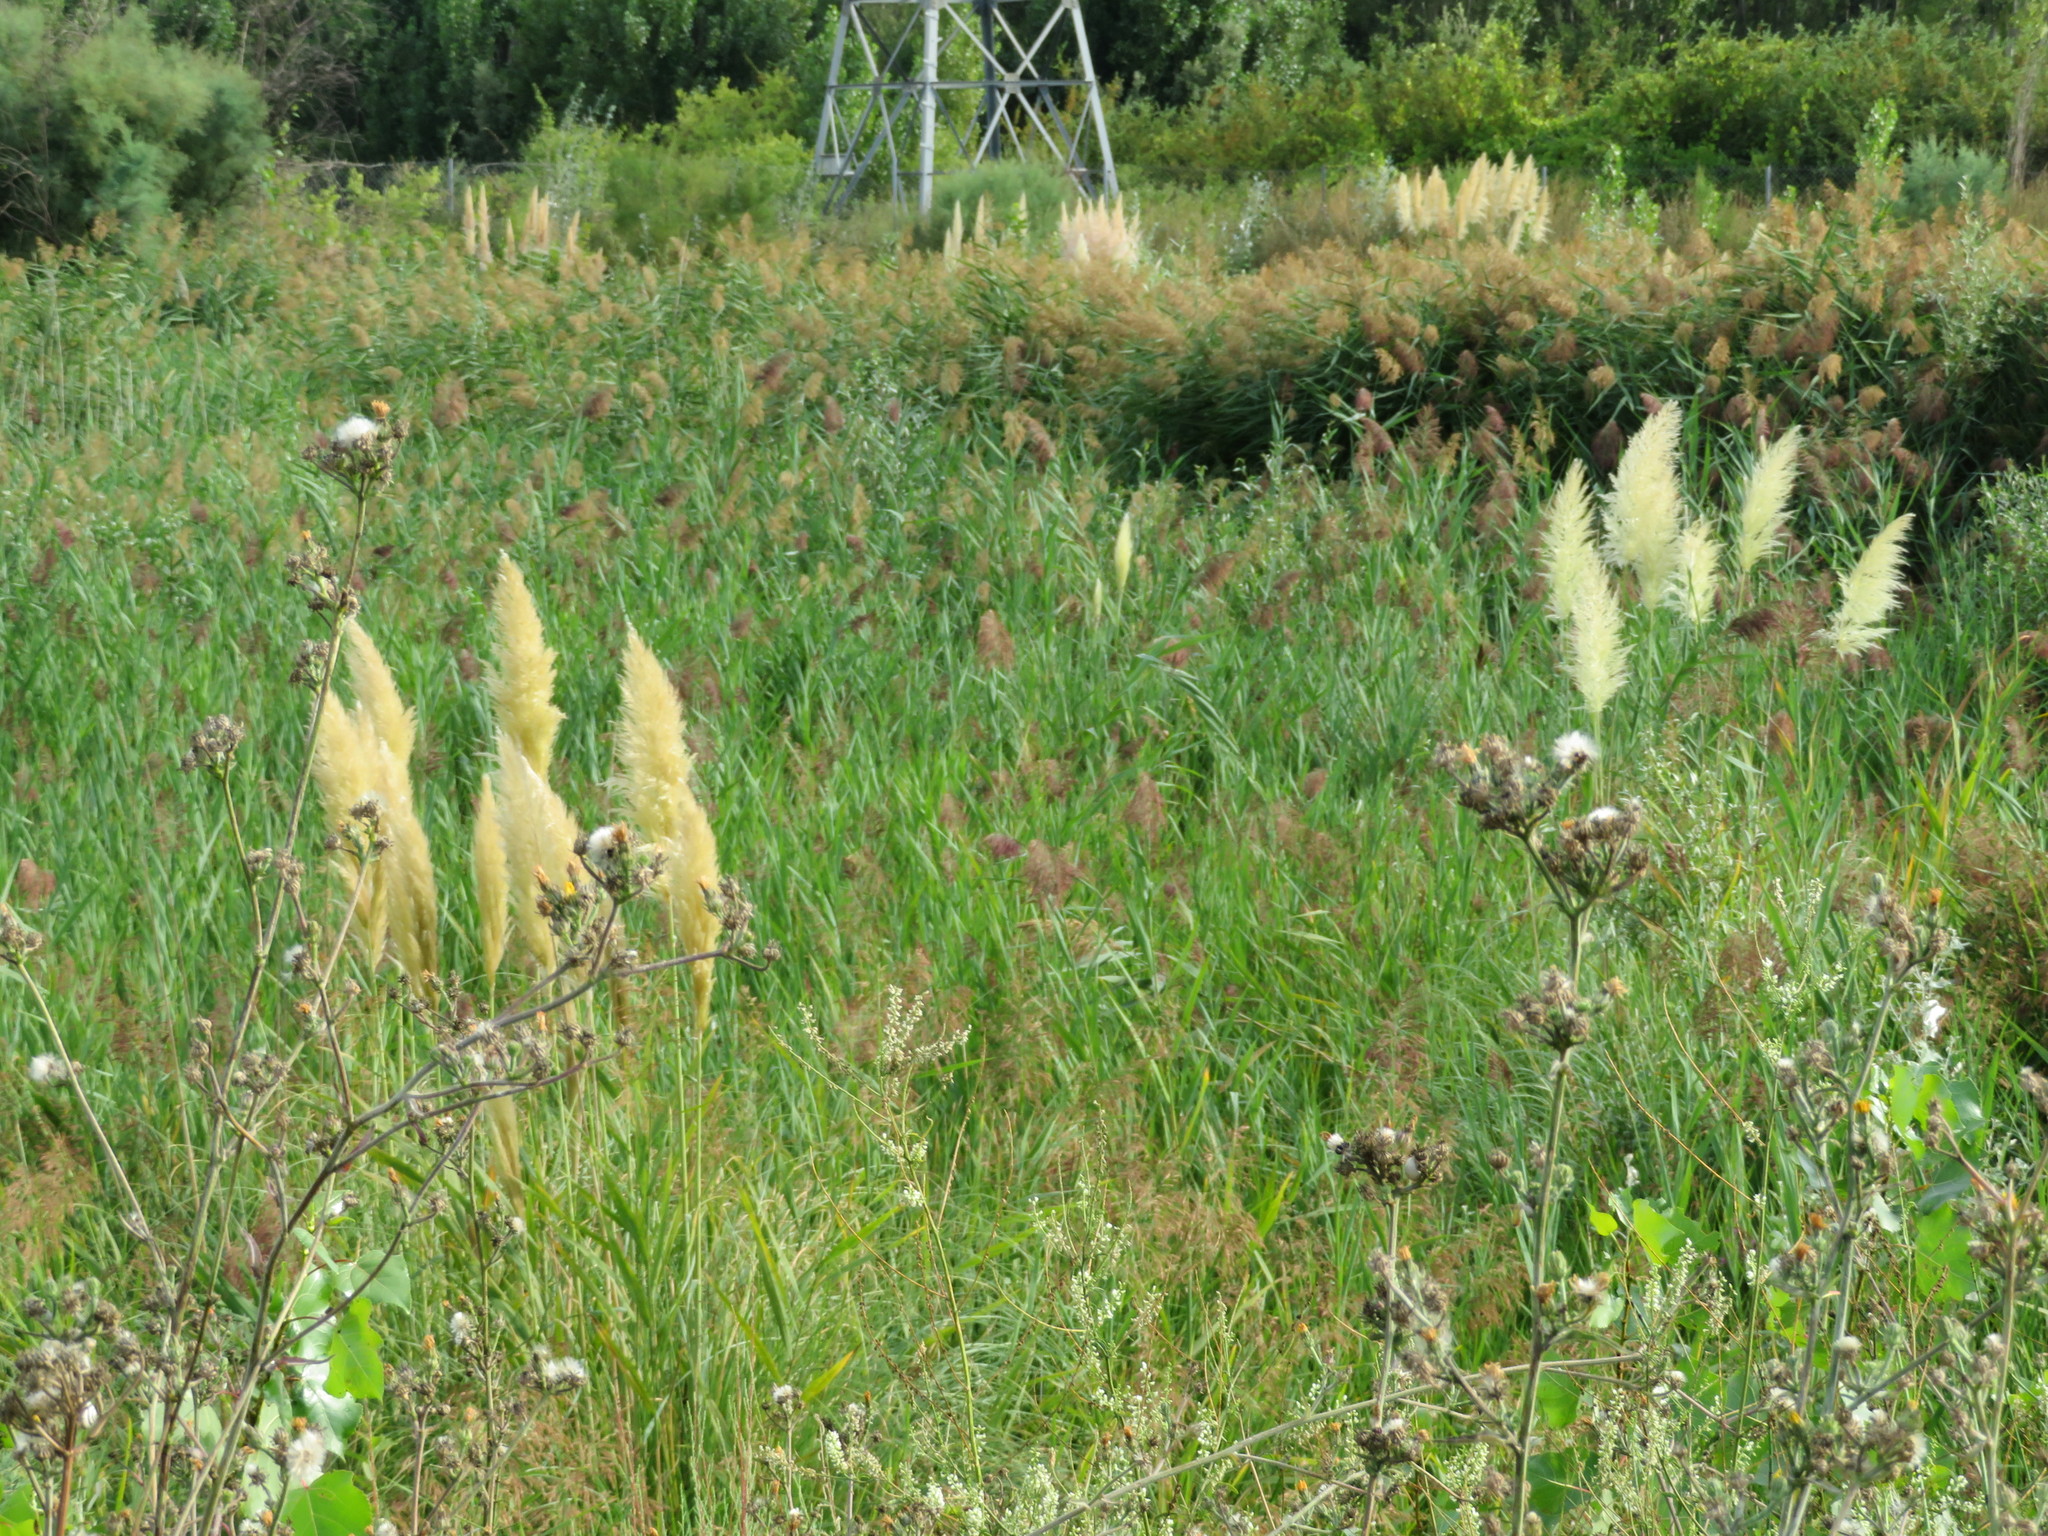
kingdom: Plantae
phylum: Tracheophyta
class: Liliopsida
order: Poales
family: Poaceae
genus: Cortaderia
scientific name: Cortaderia selloana
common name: Uruguayan pampas grass
